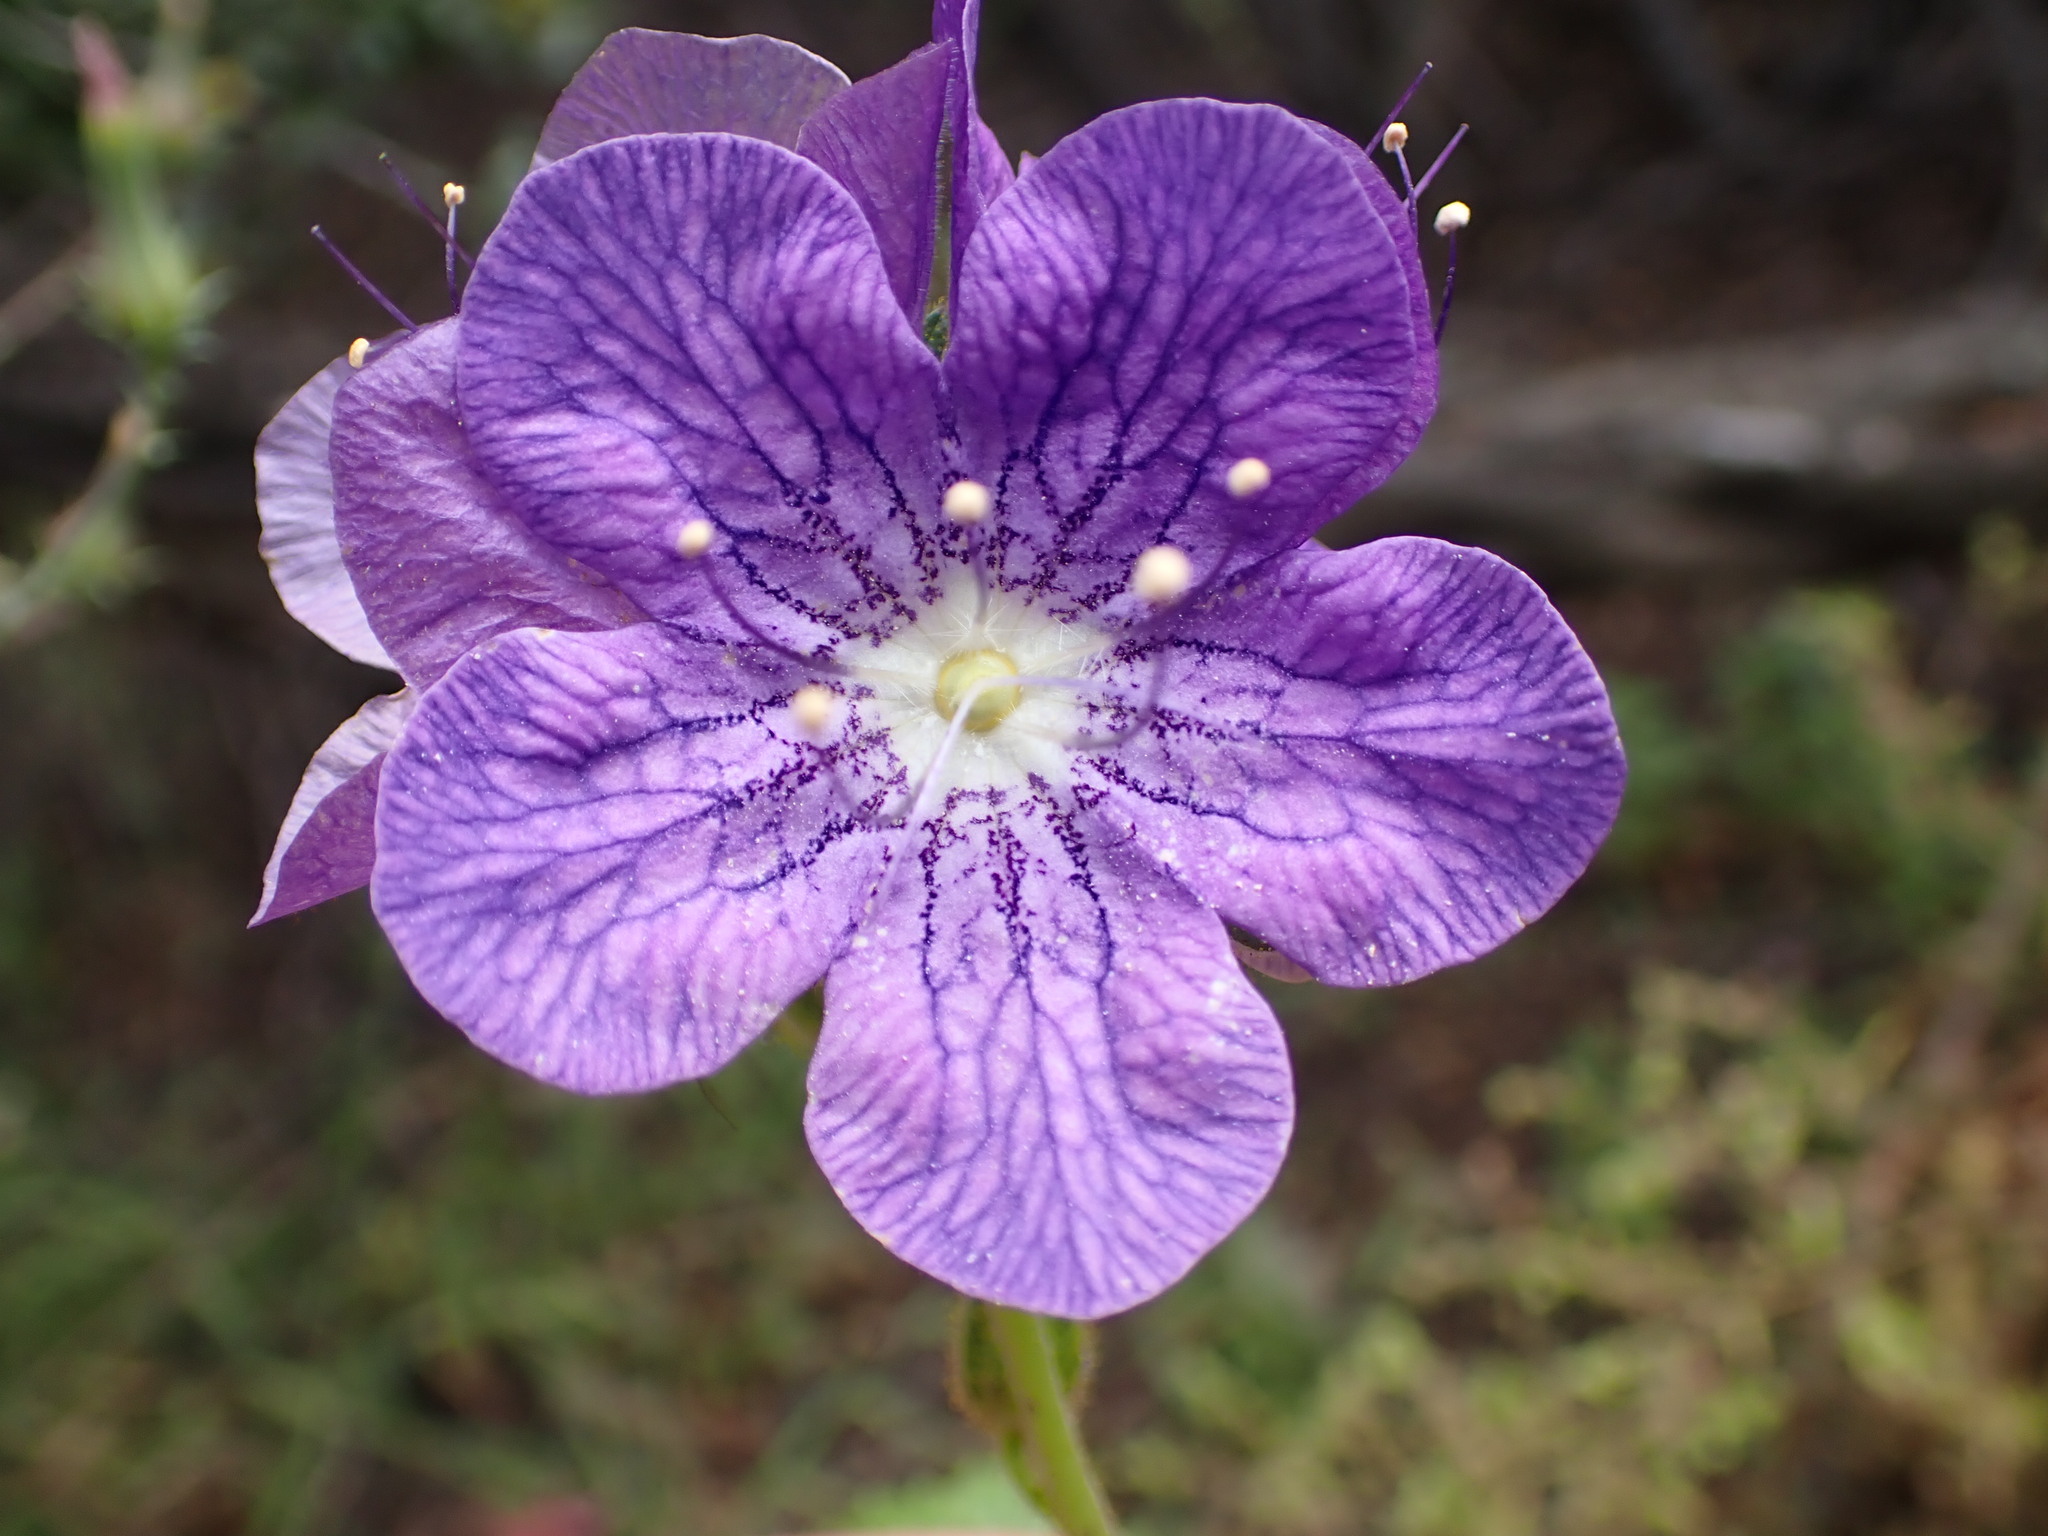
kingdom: Plantae
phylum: Tracheophyta
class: Magnoliopsida
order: Boraginales
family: Hydrophyllaceae
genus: Phacelia
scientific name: Phacelia grandiflora
